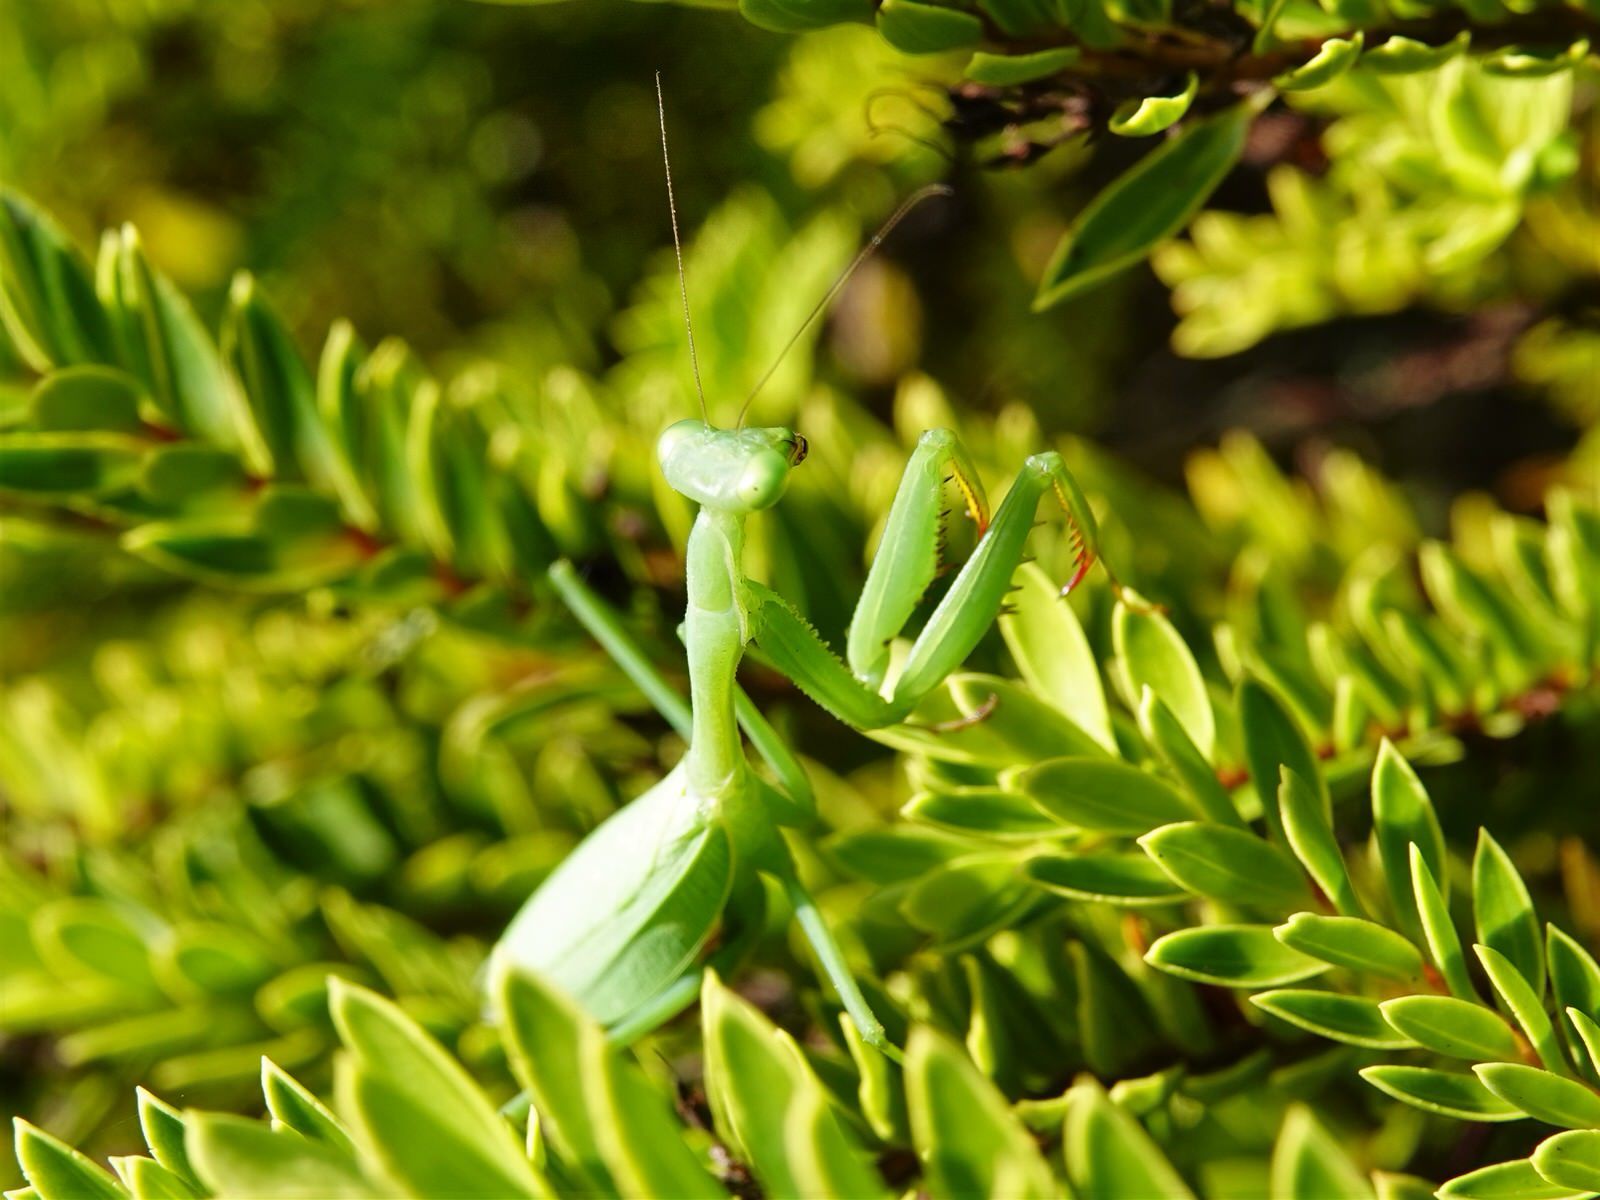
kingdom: Animalia
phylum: Arthropoda
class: Insecta
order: Mantodea
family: Miomantidae
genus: Miomantis
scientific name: Miomantis caffra
